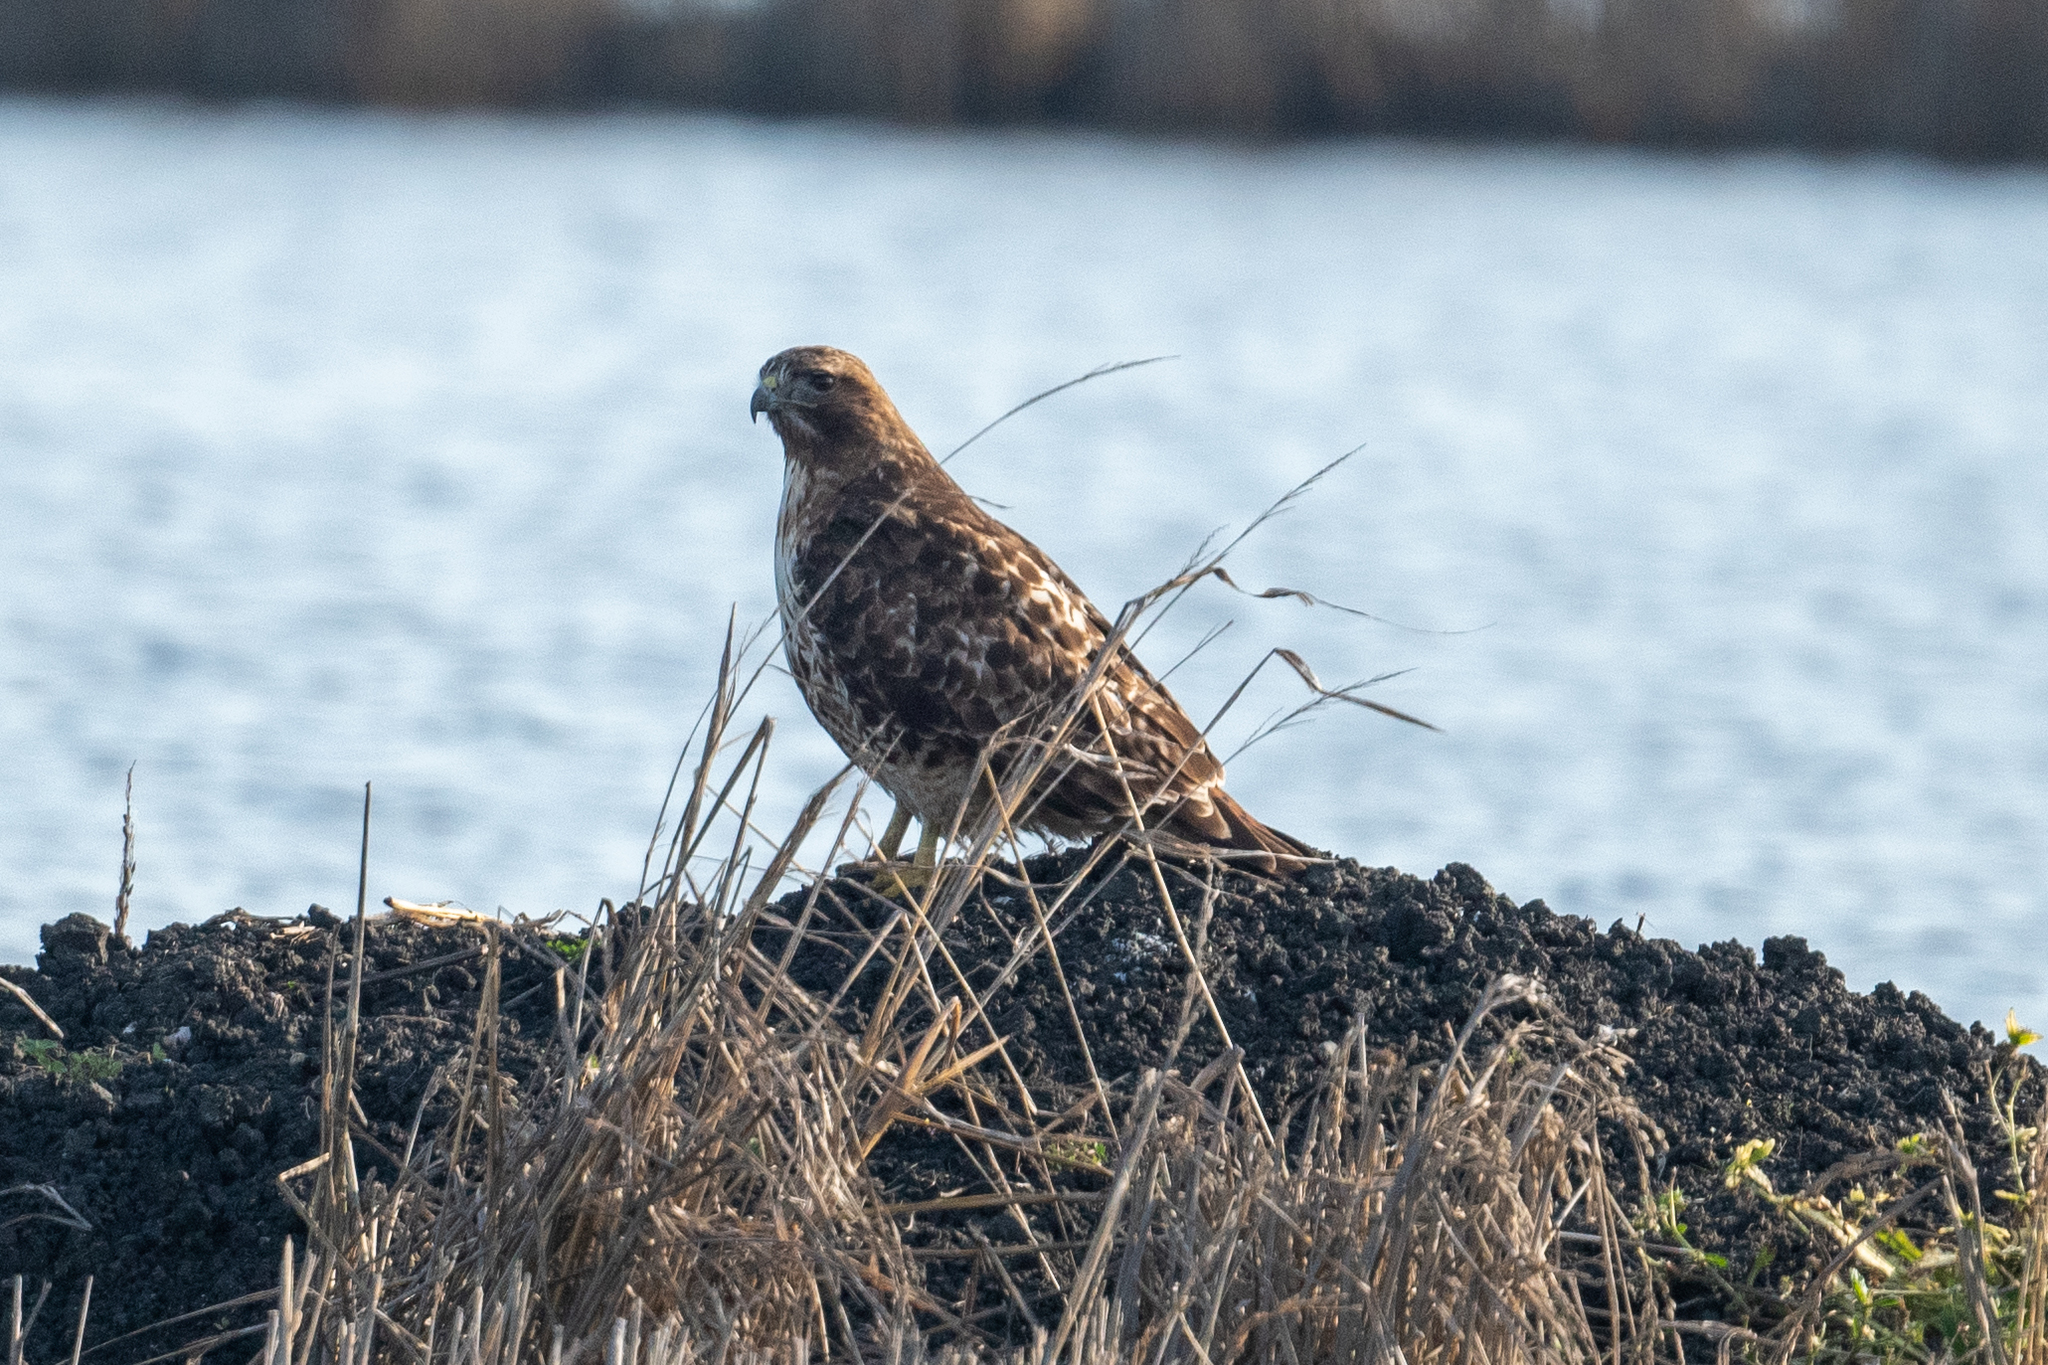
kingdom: Animalia
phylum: Chordata
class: Aves
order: Accipitriformes
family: Accipitridae
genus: Buteo
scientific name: Buteo jamaicensis
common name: Red-tailed hawk
